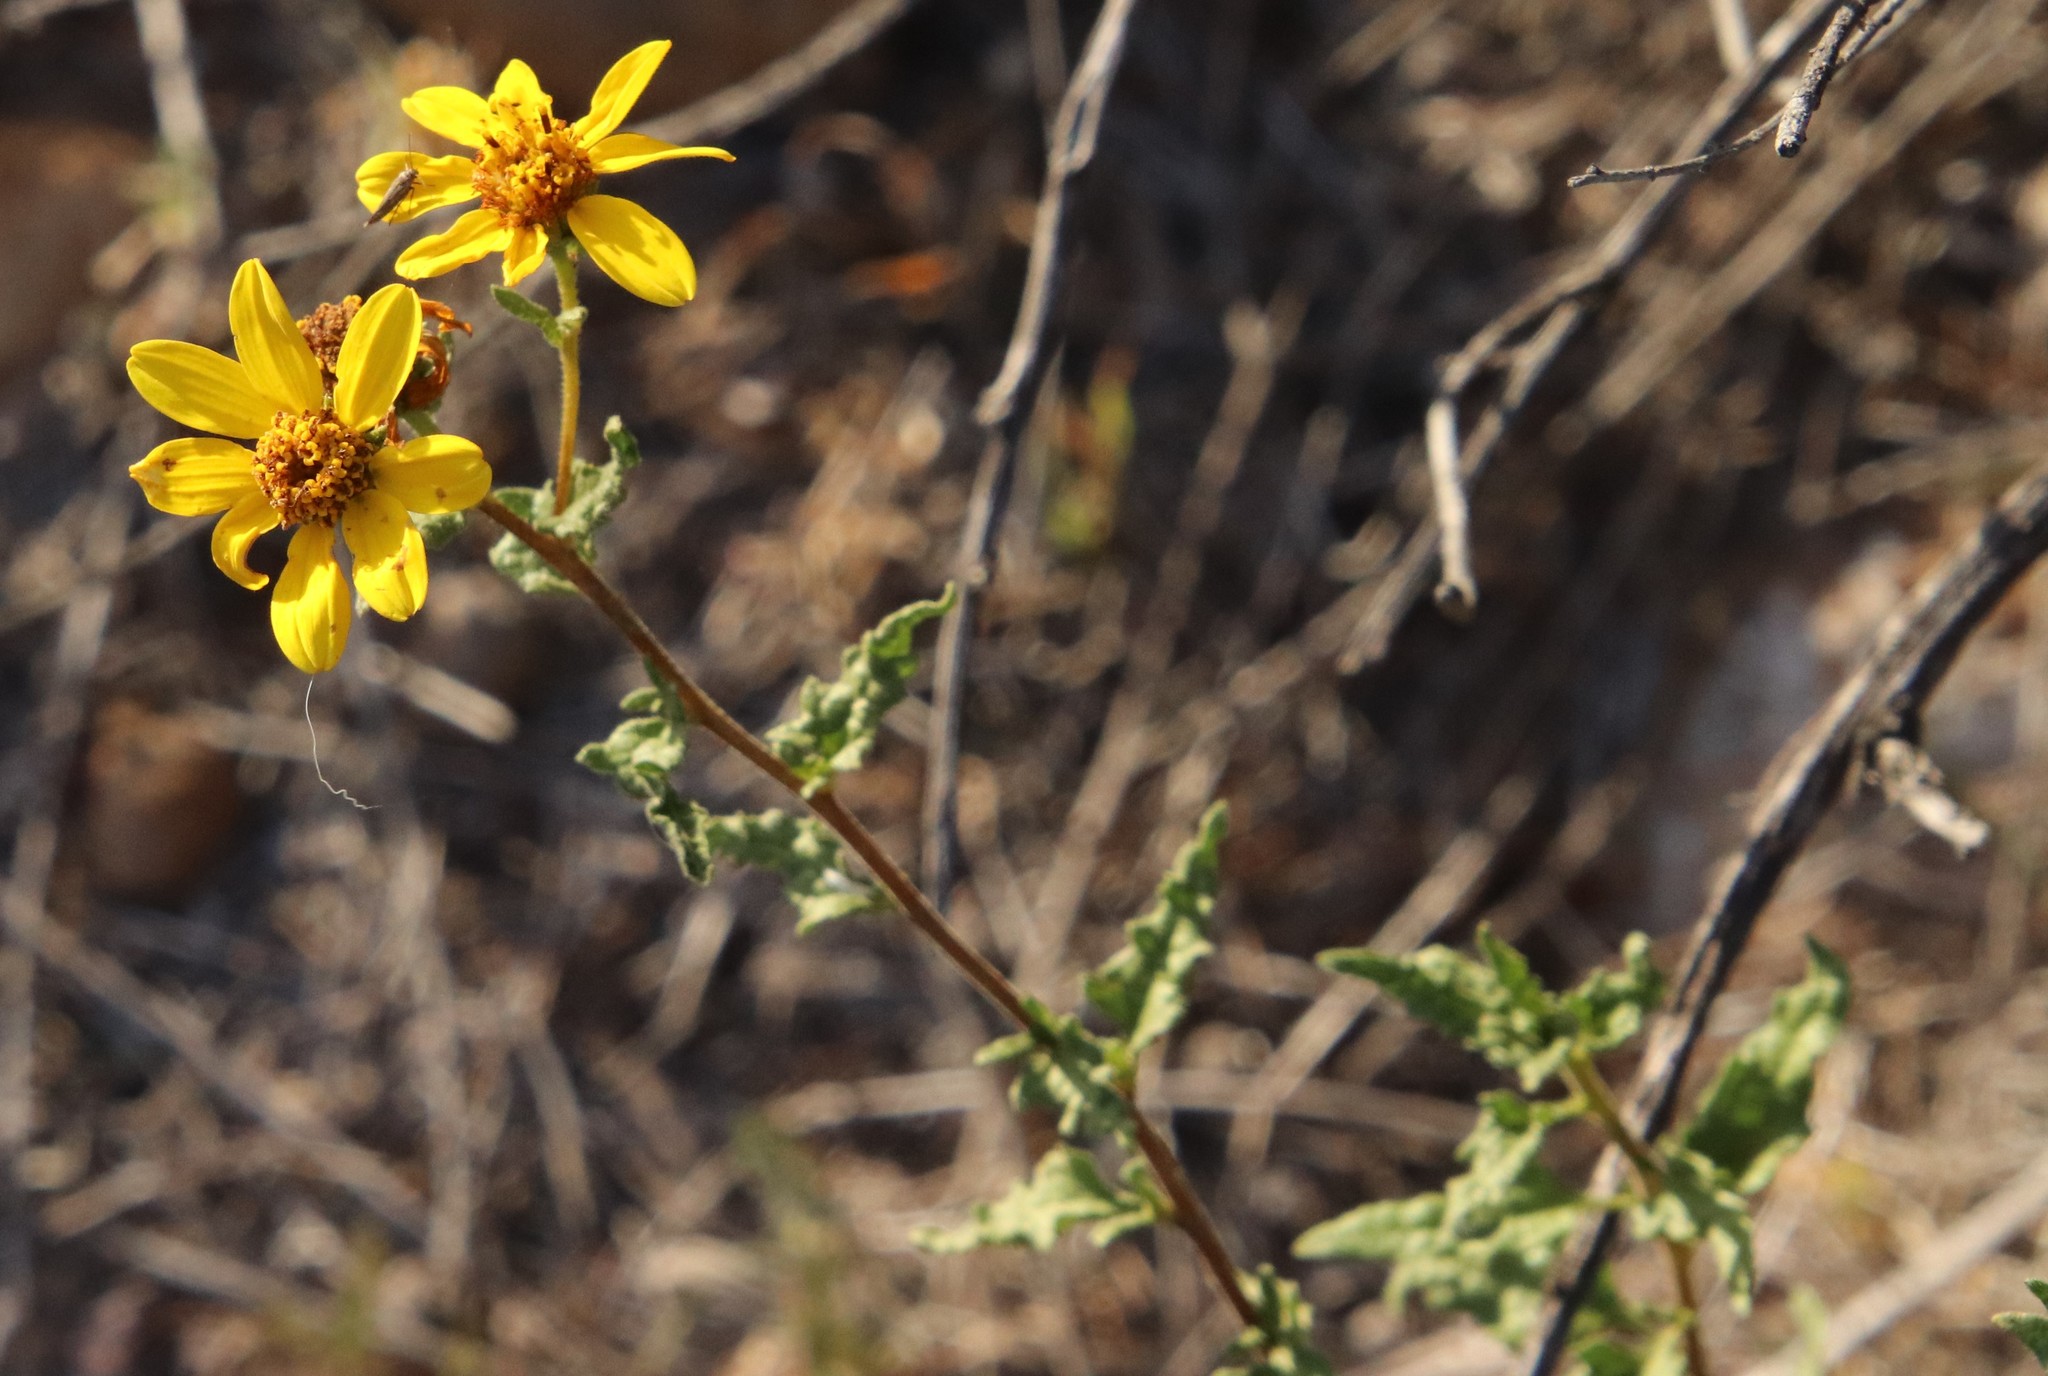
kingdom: Plantae
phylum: Tracheophyta
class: Magnoliopsida
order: Asterales
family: Asteraceae
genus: Bahiopsis
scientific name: Bahiopsis laciniata
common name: San diego county viguiera
